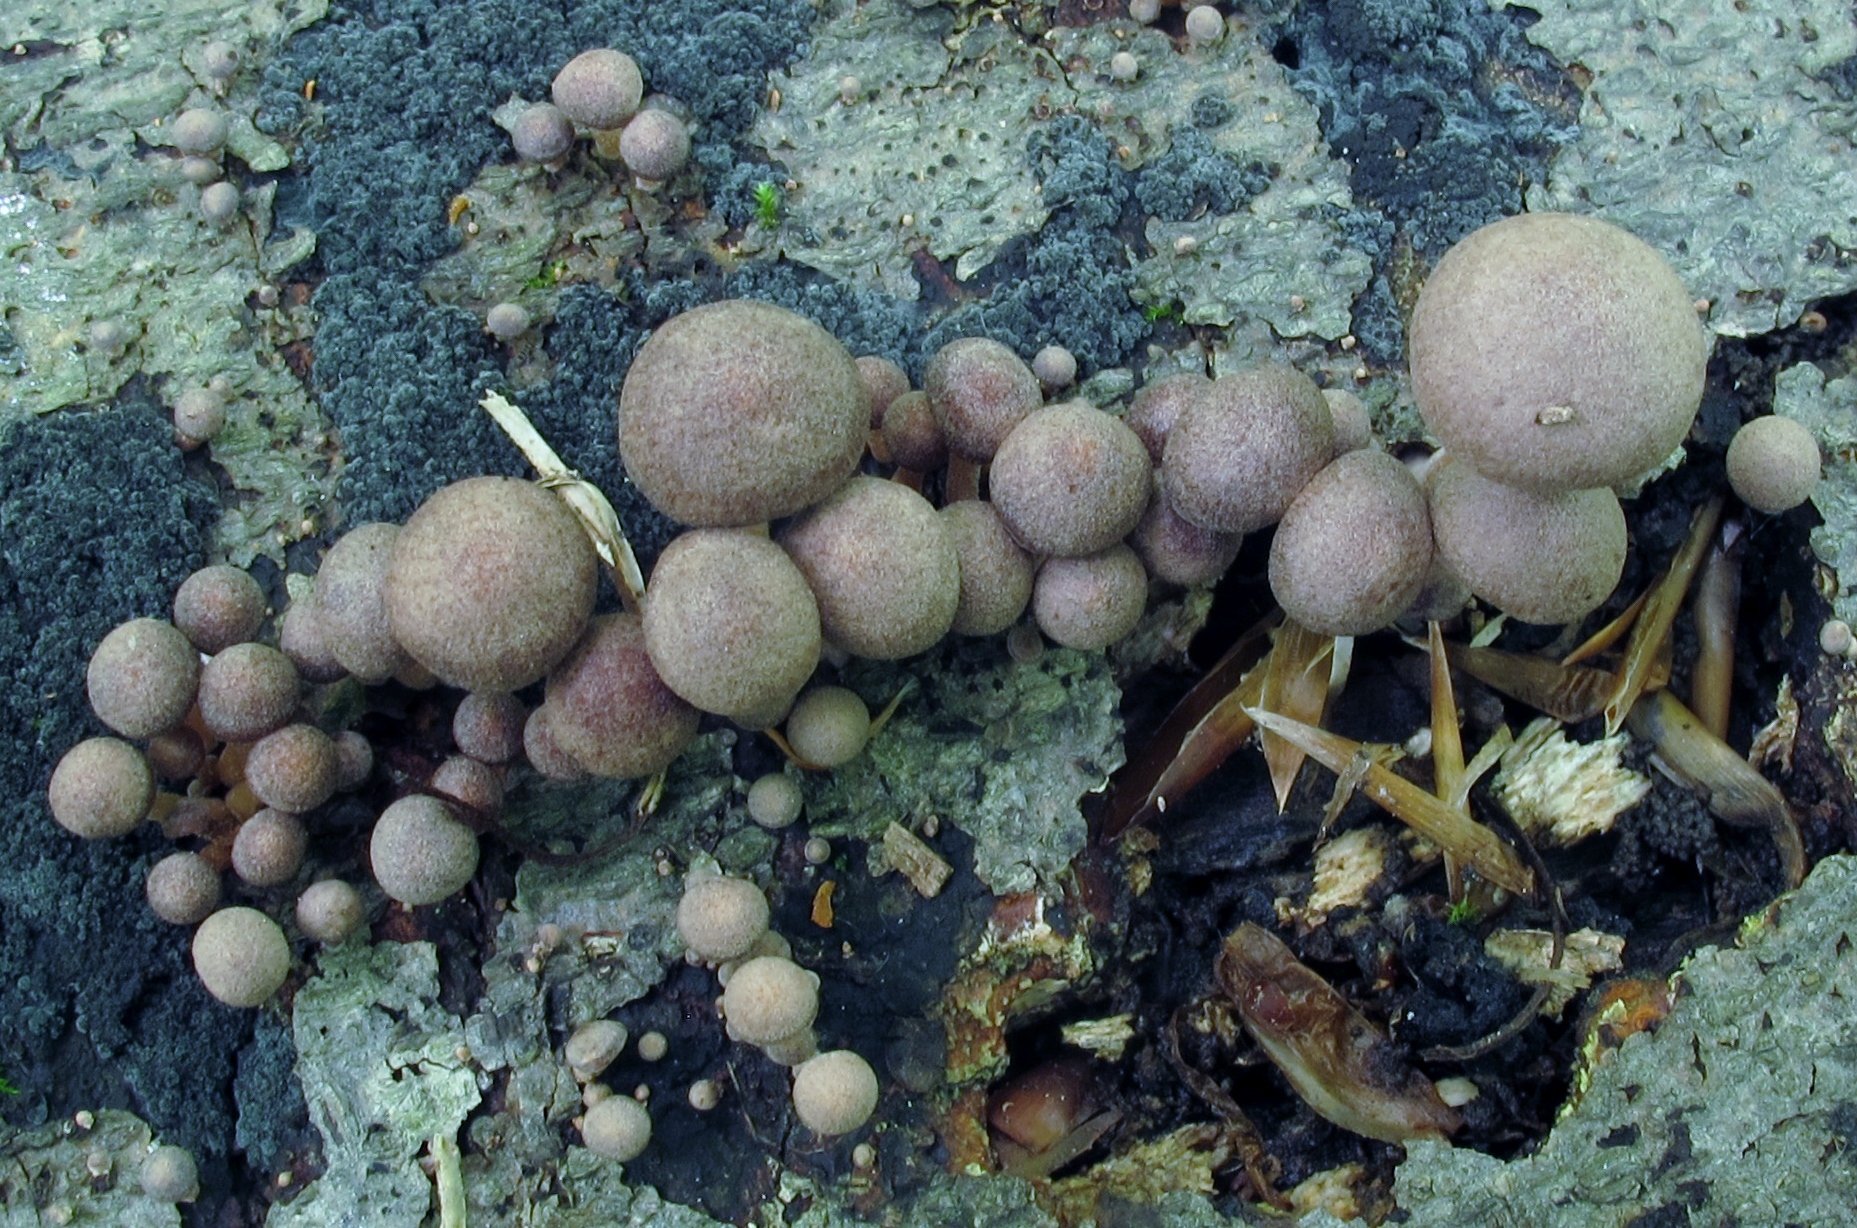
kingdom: Fungi
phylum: Basidiomycota
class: Agaricomycetes
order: Agaricales
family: Omphalotaceae
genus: Collybiopsis
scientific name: Collybiopsis dichroa
